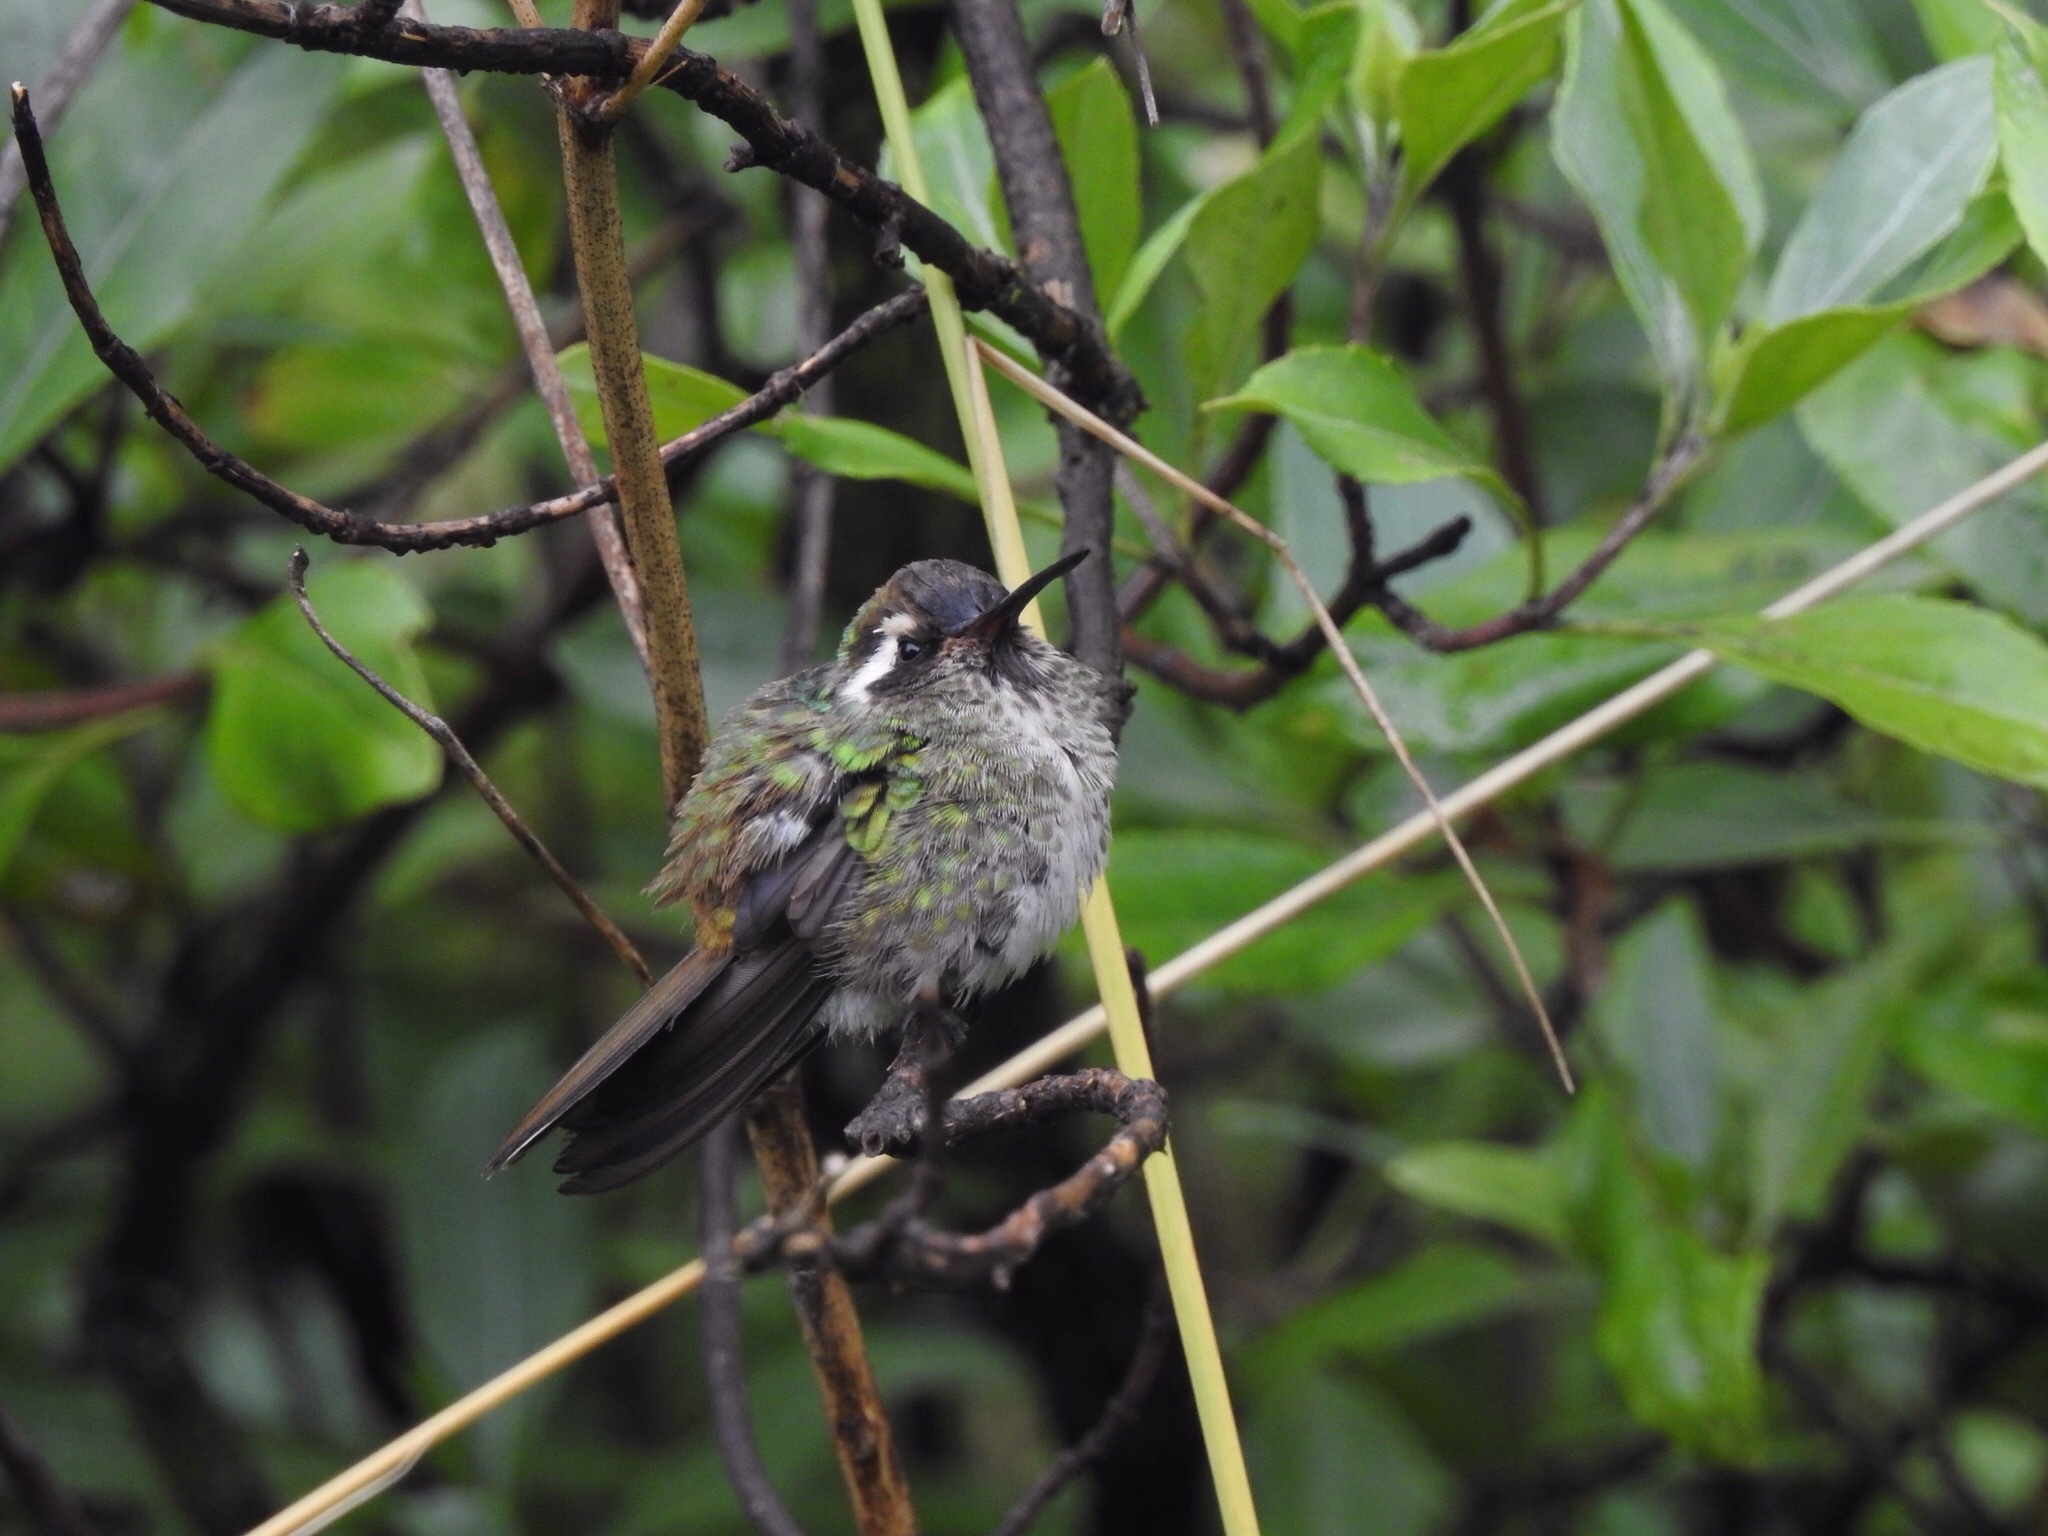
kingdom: Animalia
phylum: Chordata
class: Aves
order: Apodiformes
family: Trochilidae
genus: Basilinna
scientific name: Basilinna leucotis
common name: White-eared hummingbird
